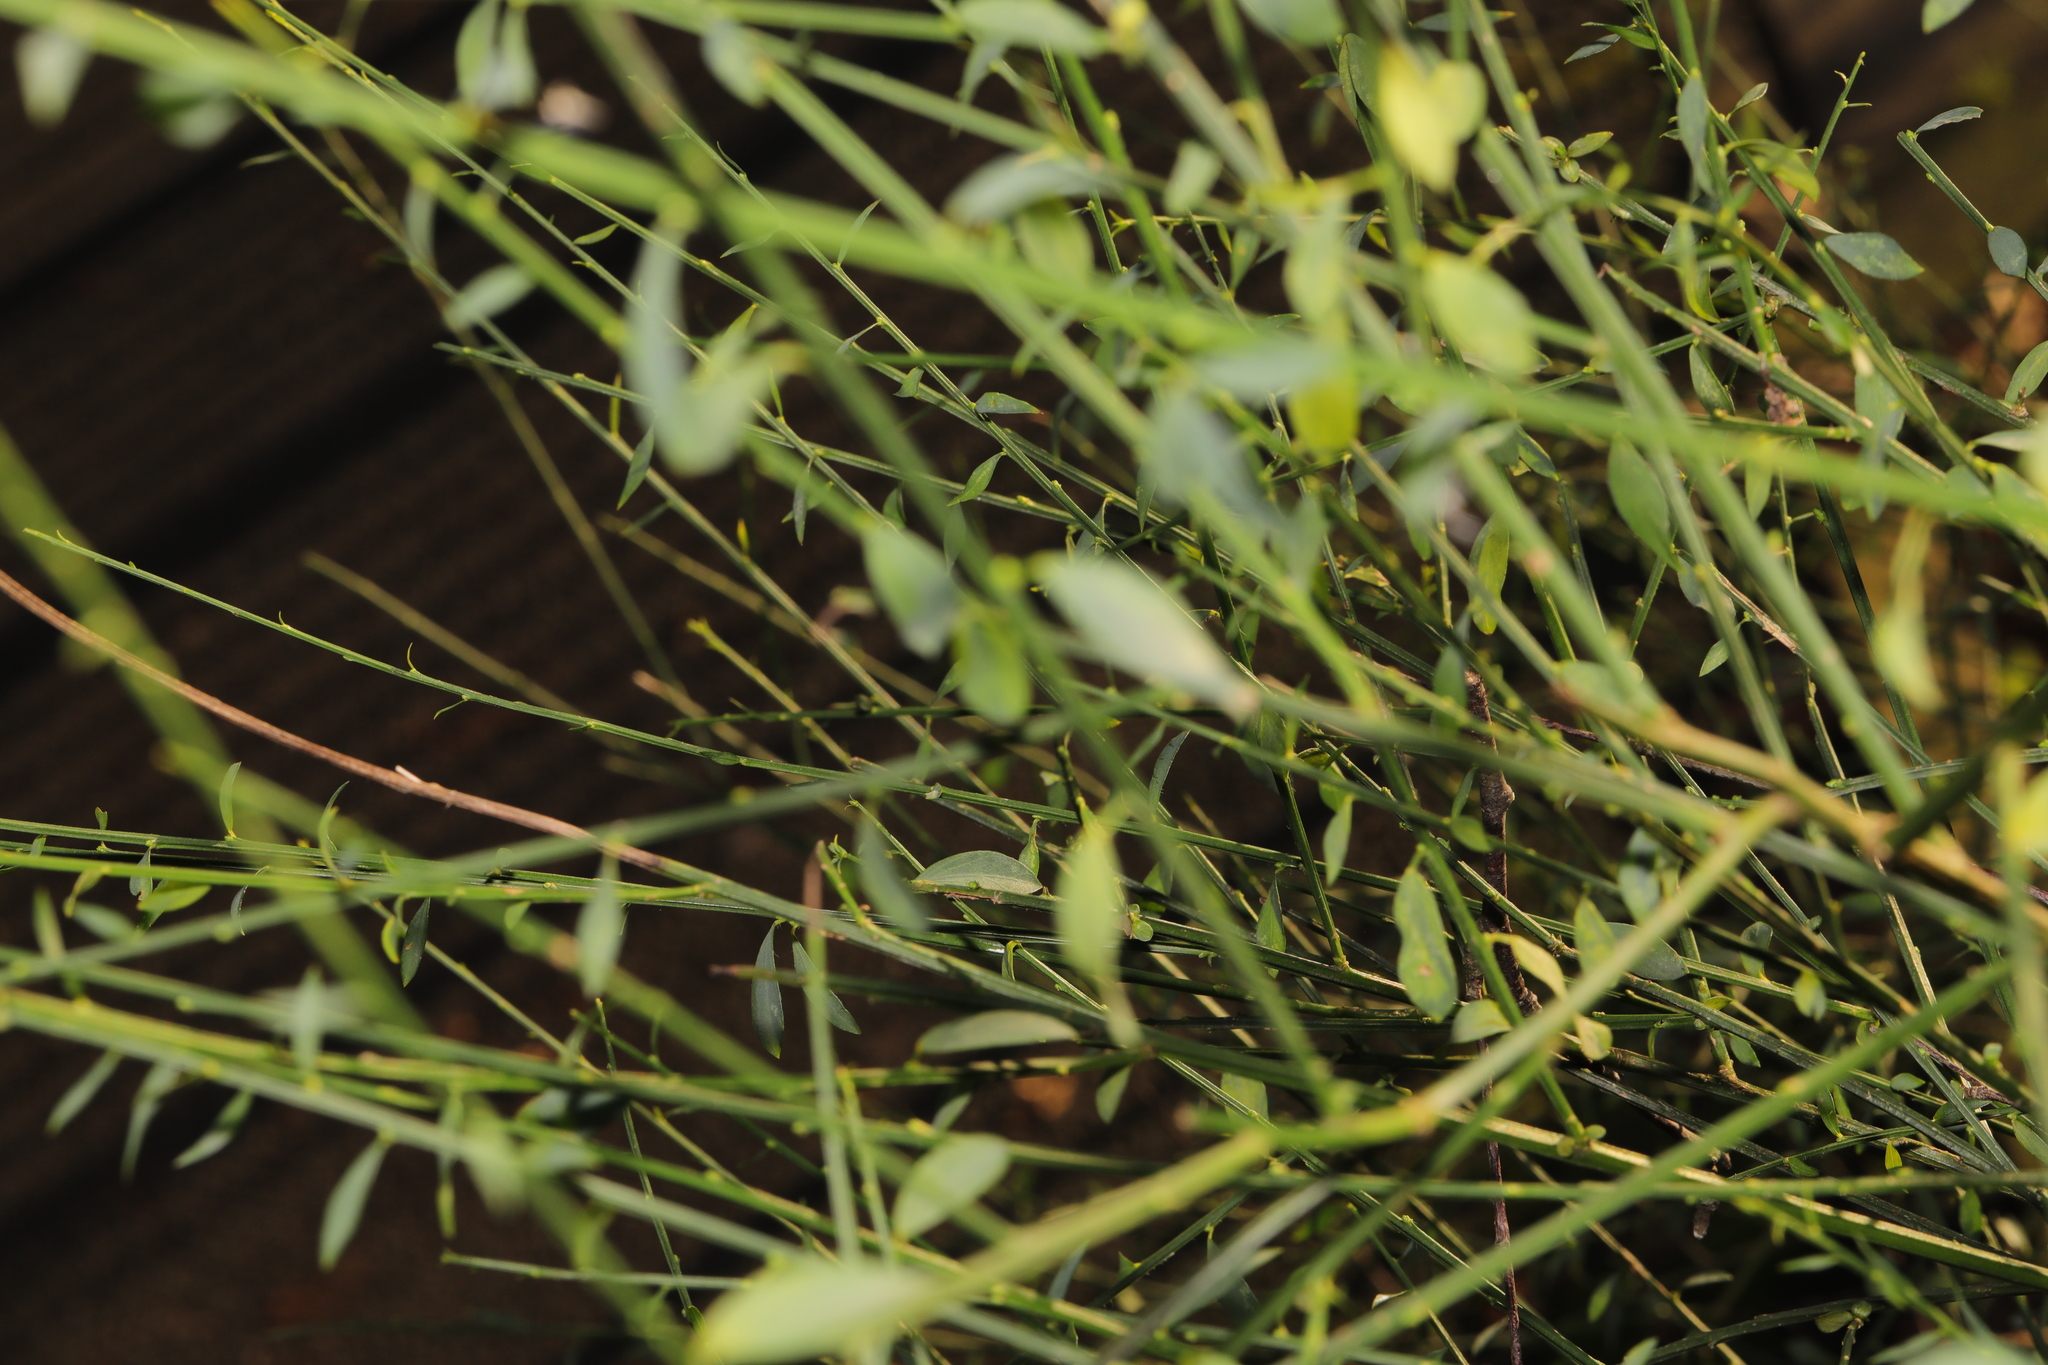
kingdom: Plantae
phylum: Tracheophyta
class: Magnoliopsida
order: Fabales
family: Fabaceae
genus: Cytisus
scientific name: Cytisus scoparius
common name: Scotch broom
